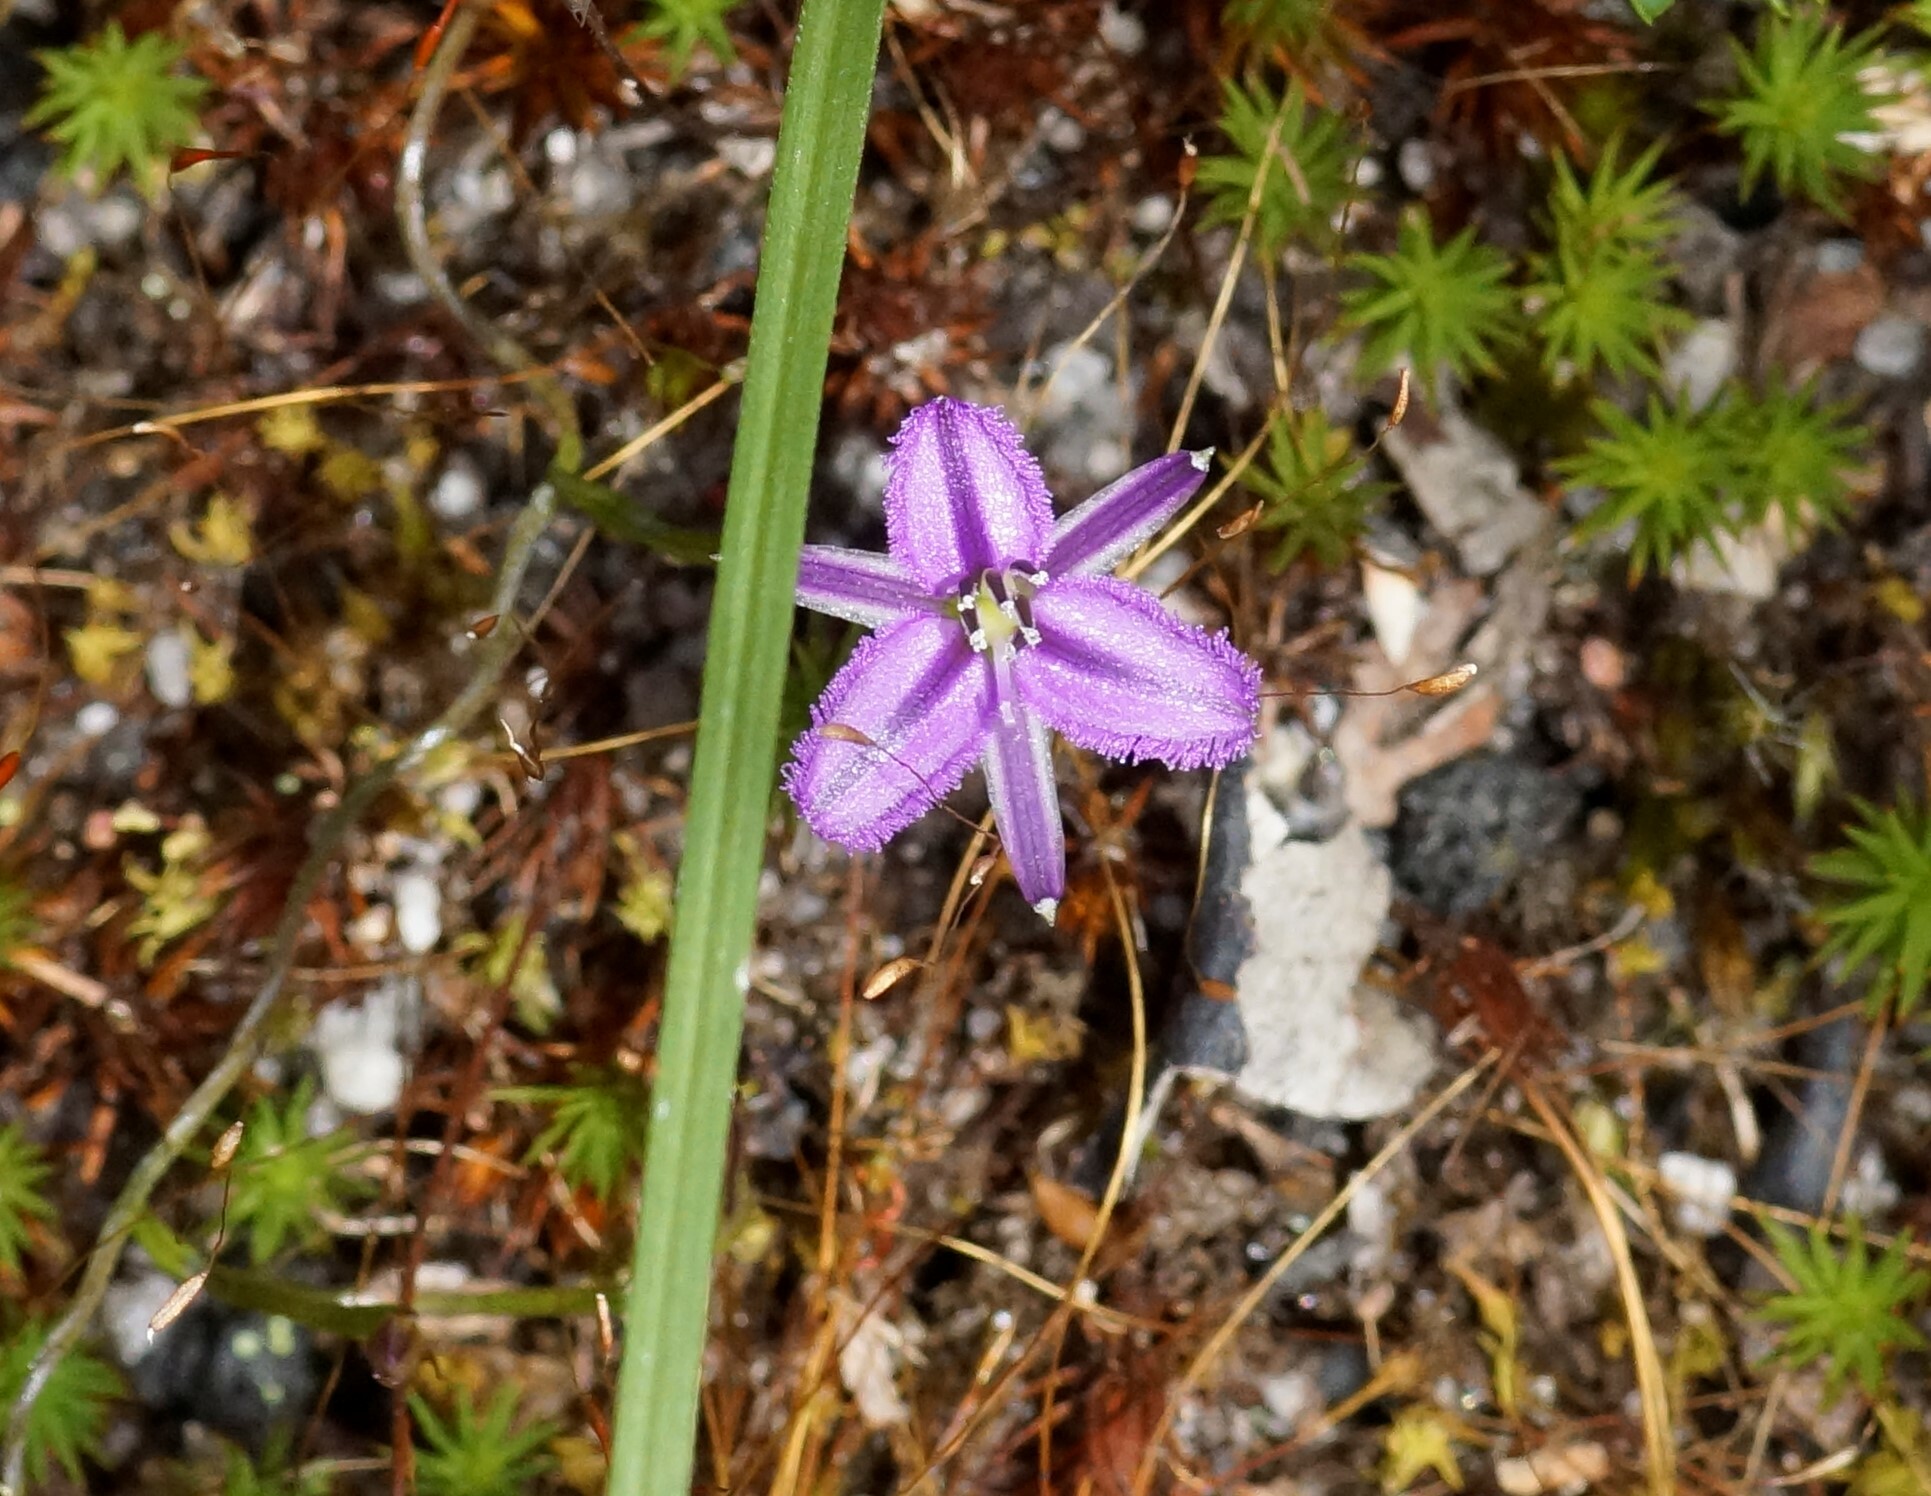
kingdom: Plantae
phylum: Tracheophyta
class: Liliopsida
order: Asparagales
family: Asparagaceae
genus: Thysanotus
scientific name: Thysanotus patersonii
